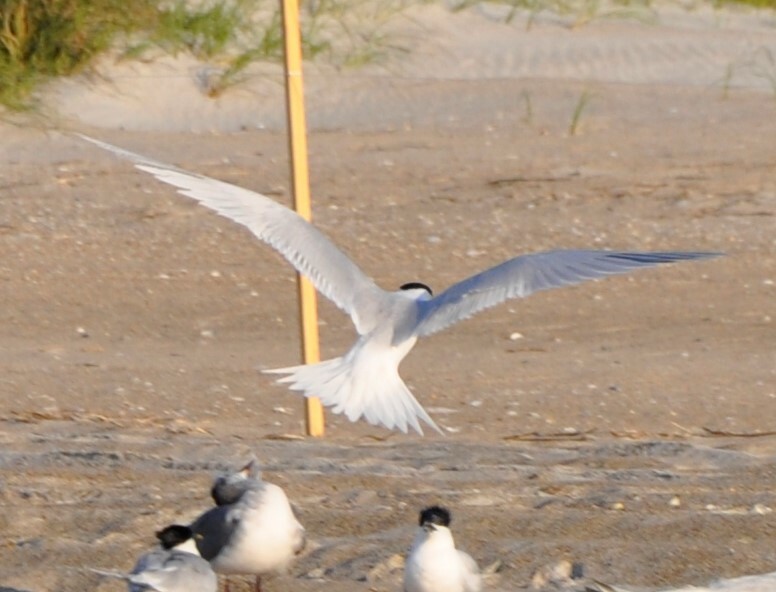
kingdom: Animalia
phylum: Chordata
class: Aves
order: Charadriiformes
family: Laridae
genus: Thalasseus
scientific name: Thalasseus sandvicensis
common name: Sandwich tern
